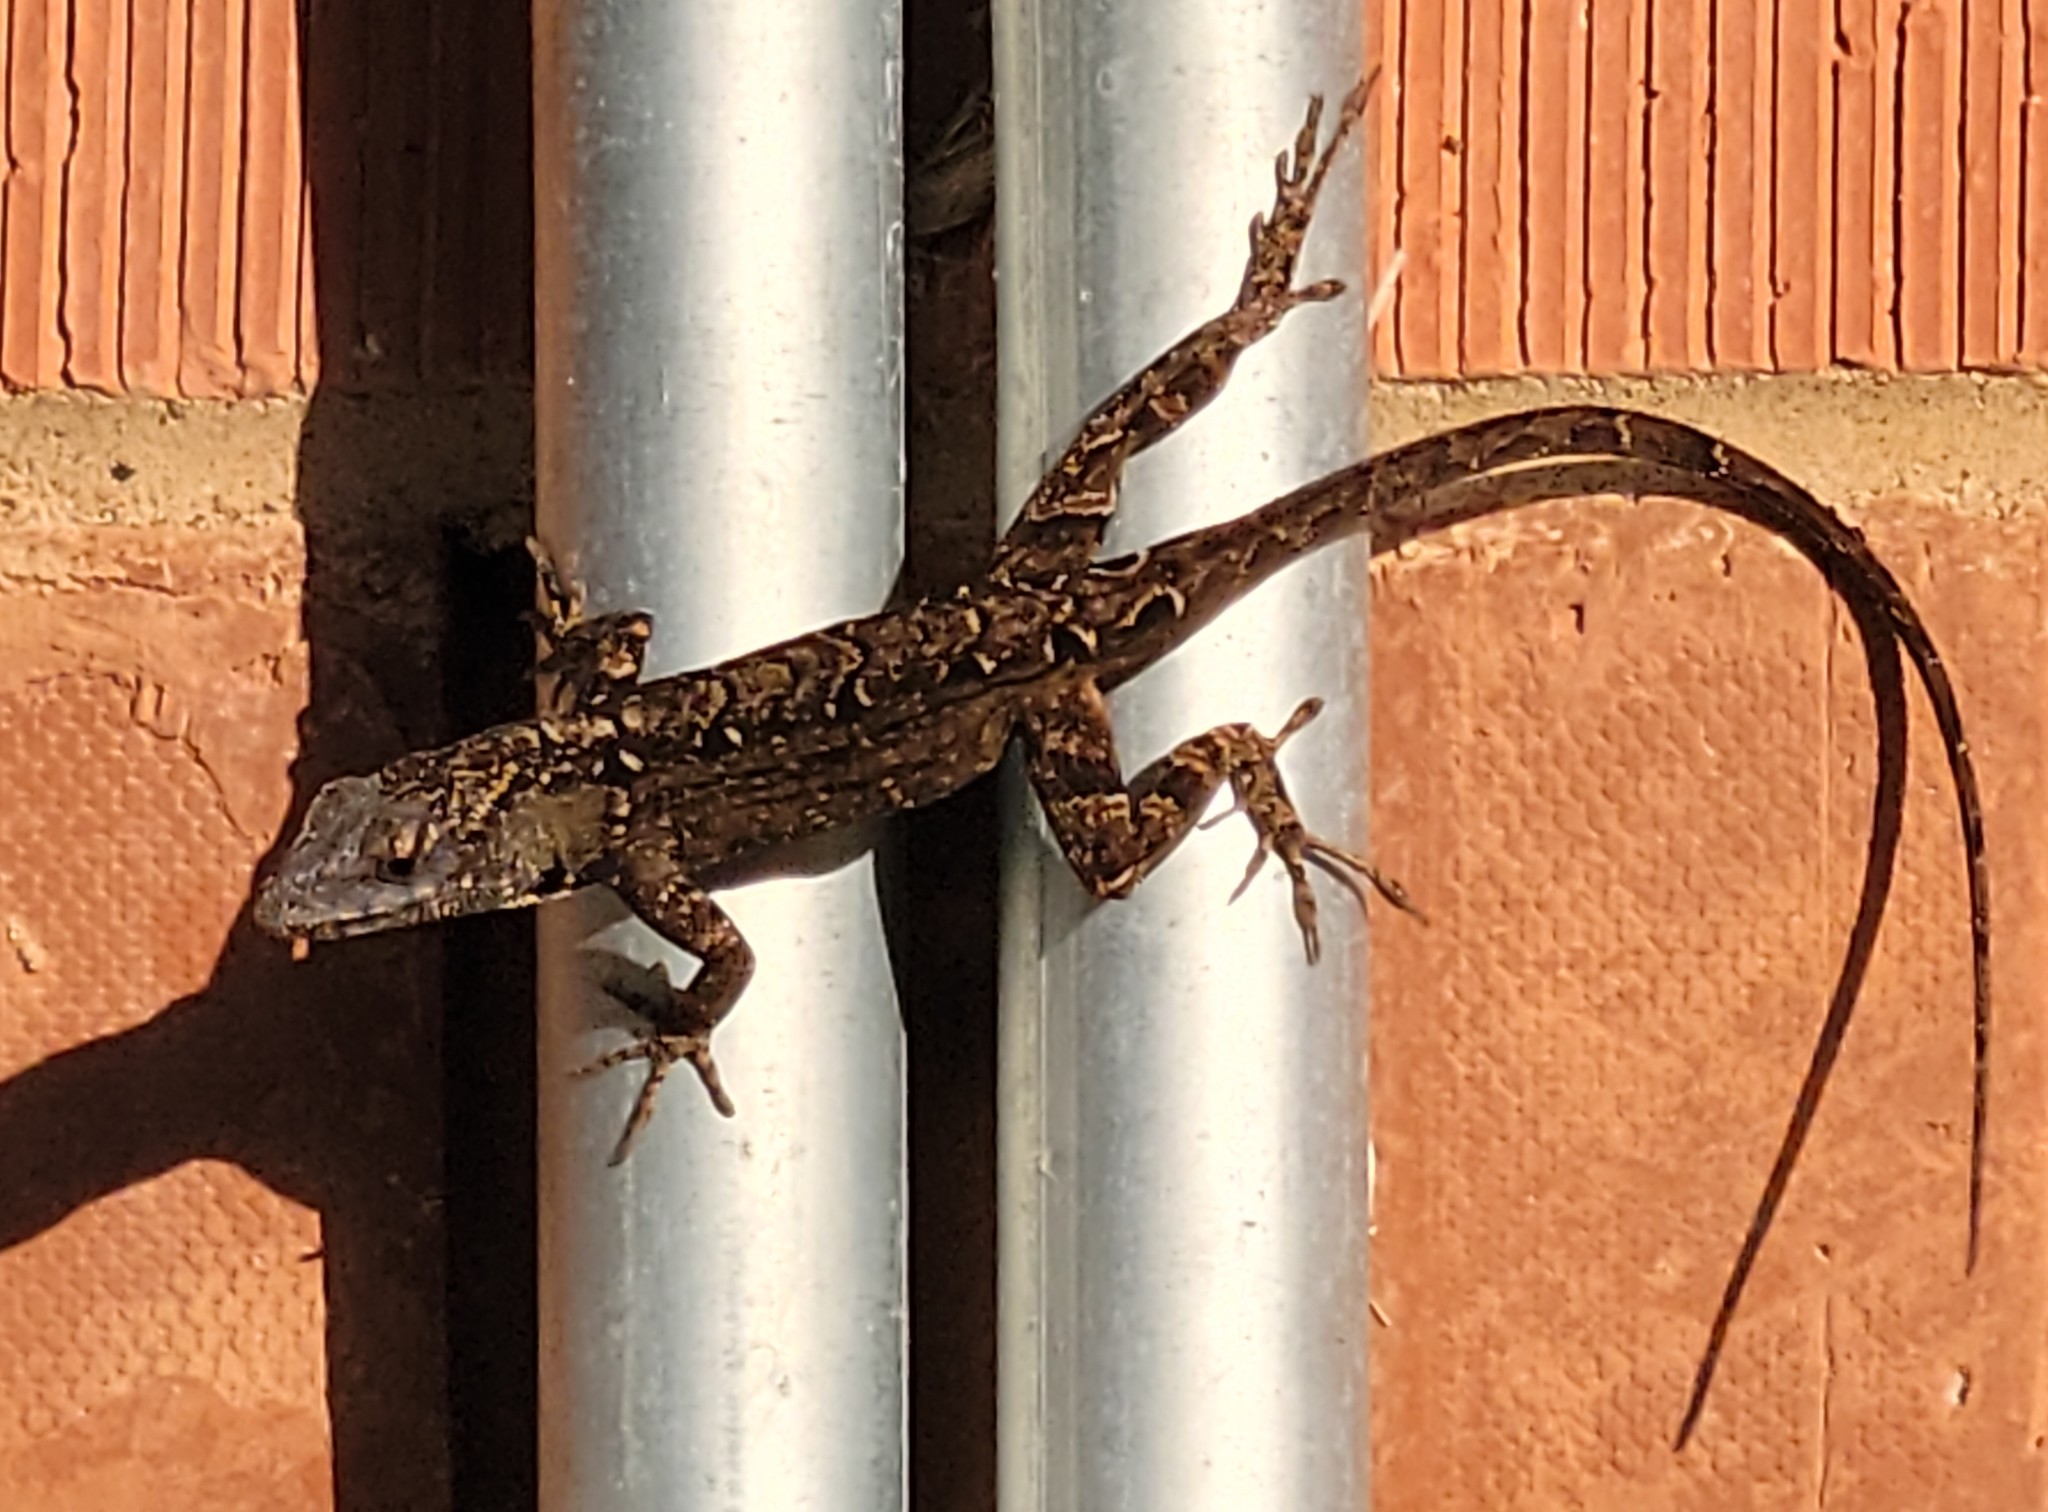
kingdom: Animalia
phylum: Chordata
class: Squamata
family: Dactyloidae
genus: Anolis
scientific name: Anolis sagrei
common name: Brown anole
